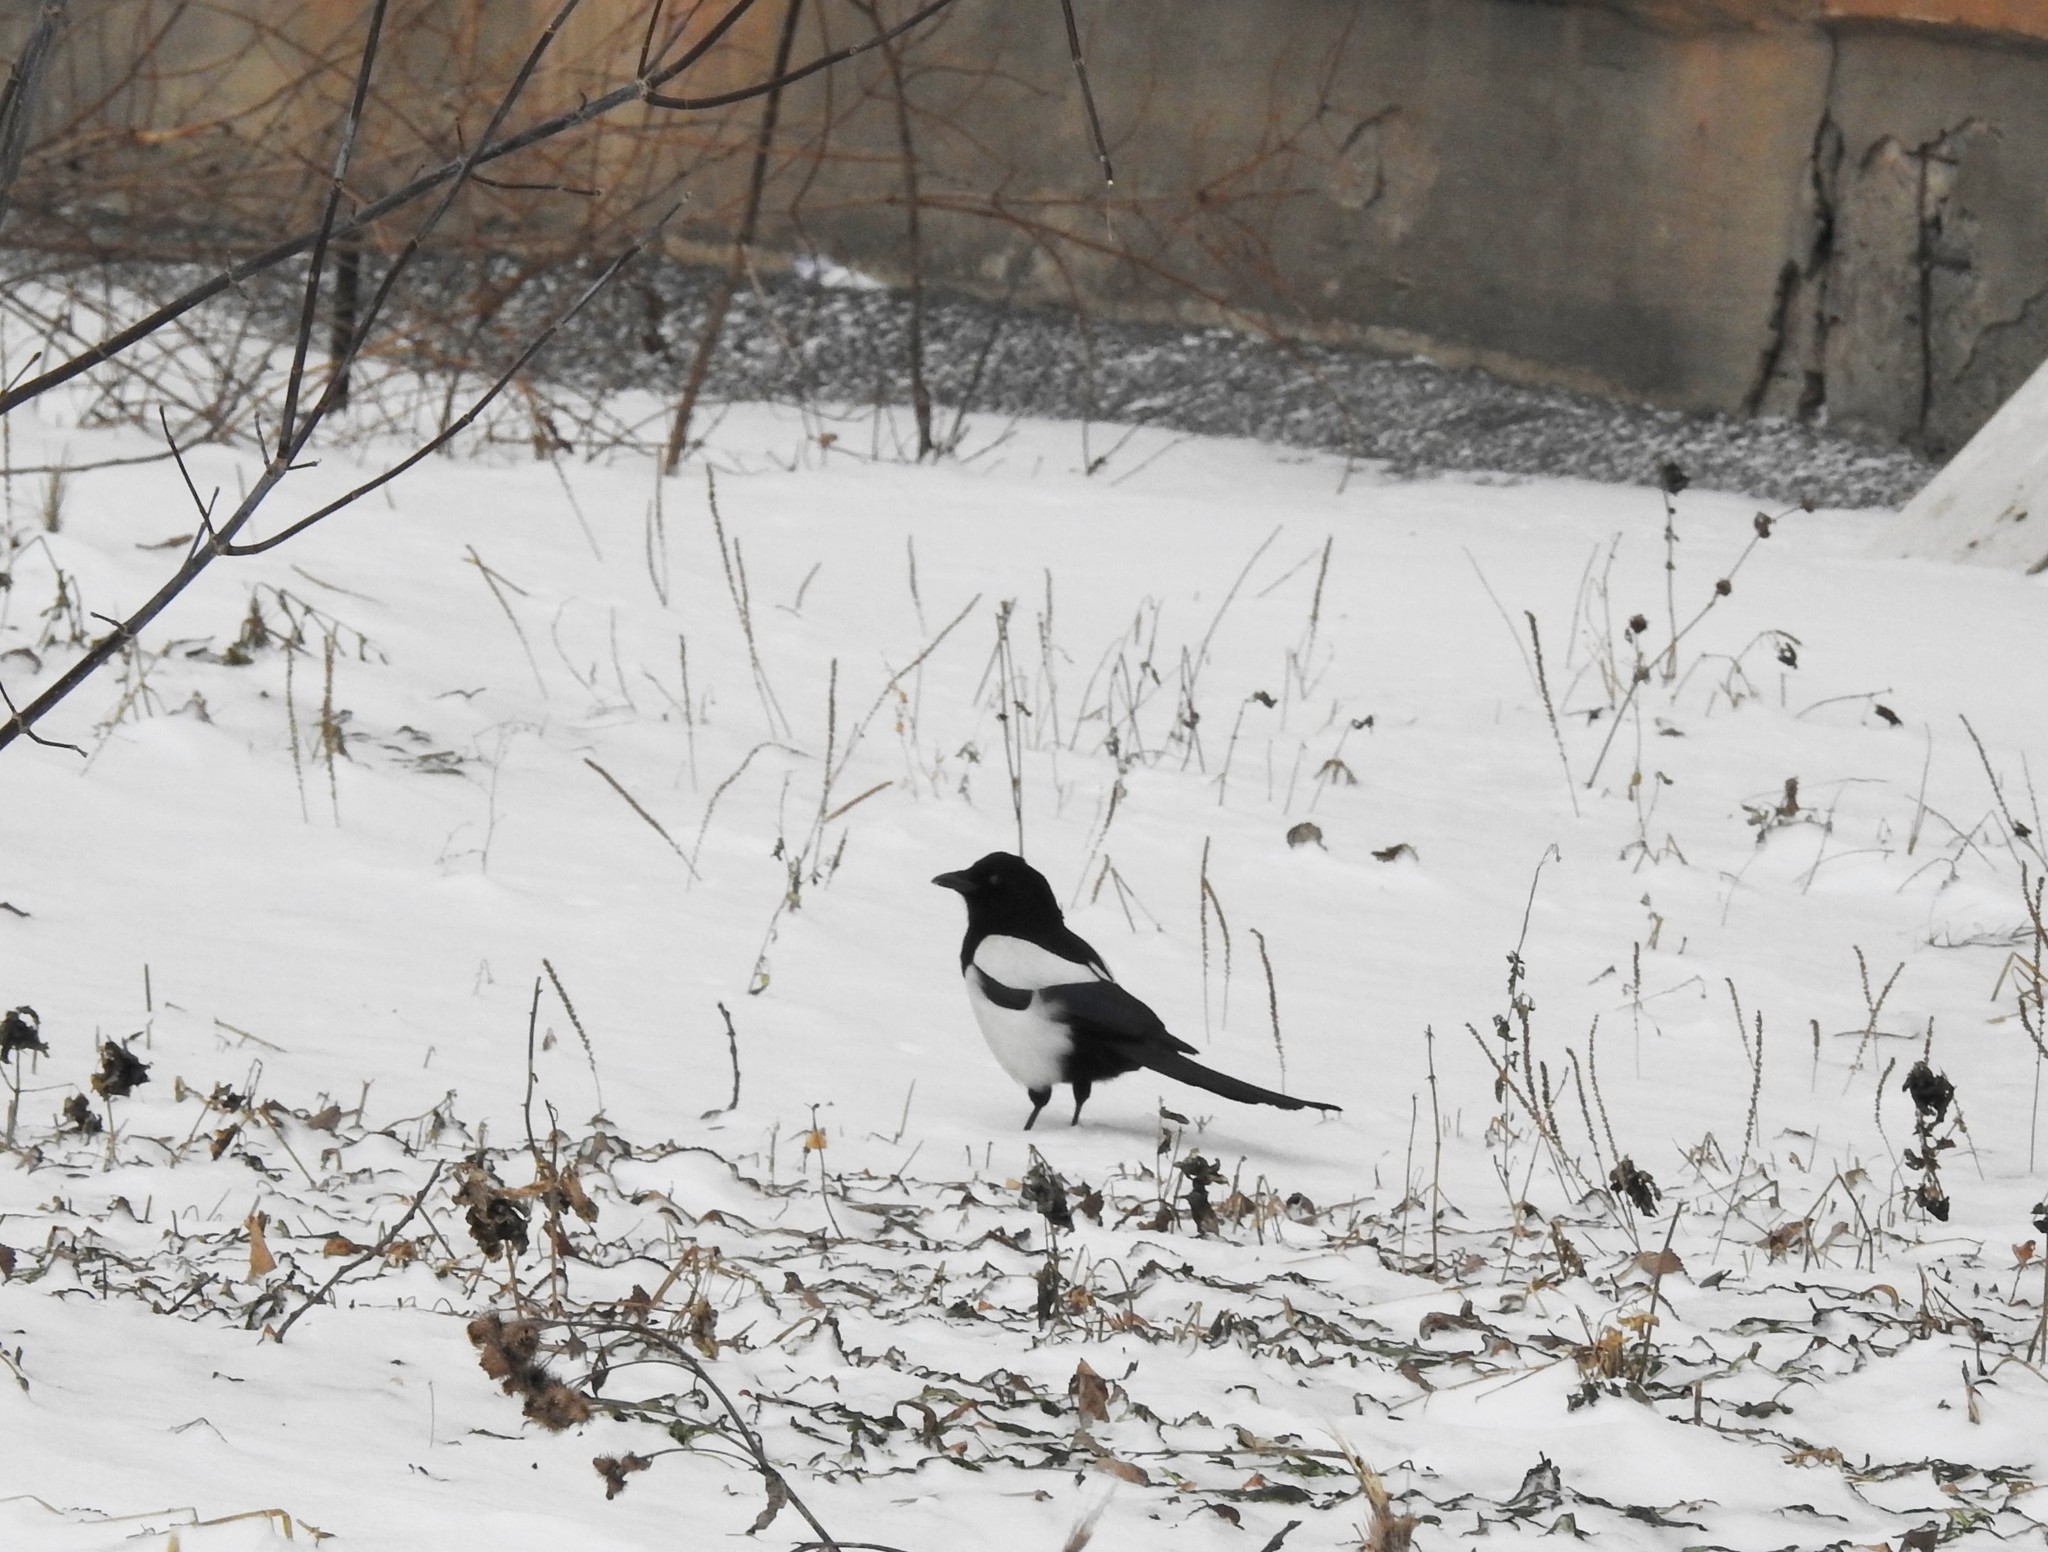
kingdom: Animalia
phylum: Chordata
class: Aves
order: Passeriformes
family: Corvidae
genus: Pica
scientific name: Pica pica
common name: Eurasian magpie
